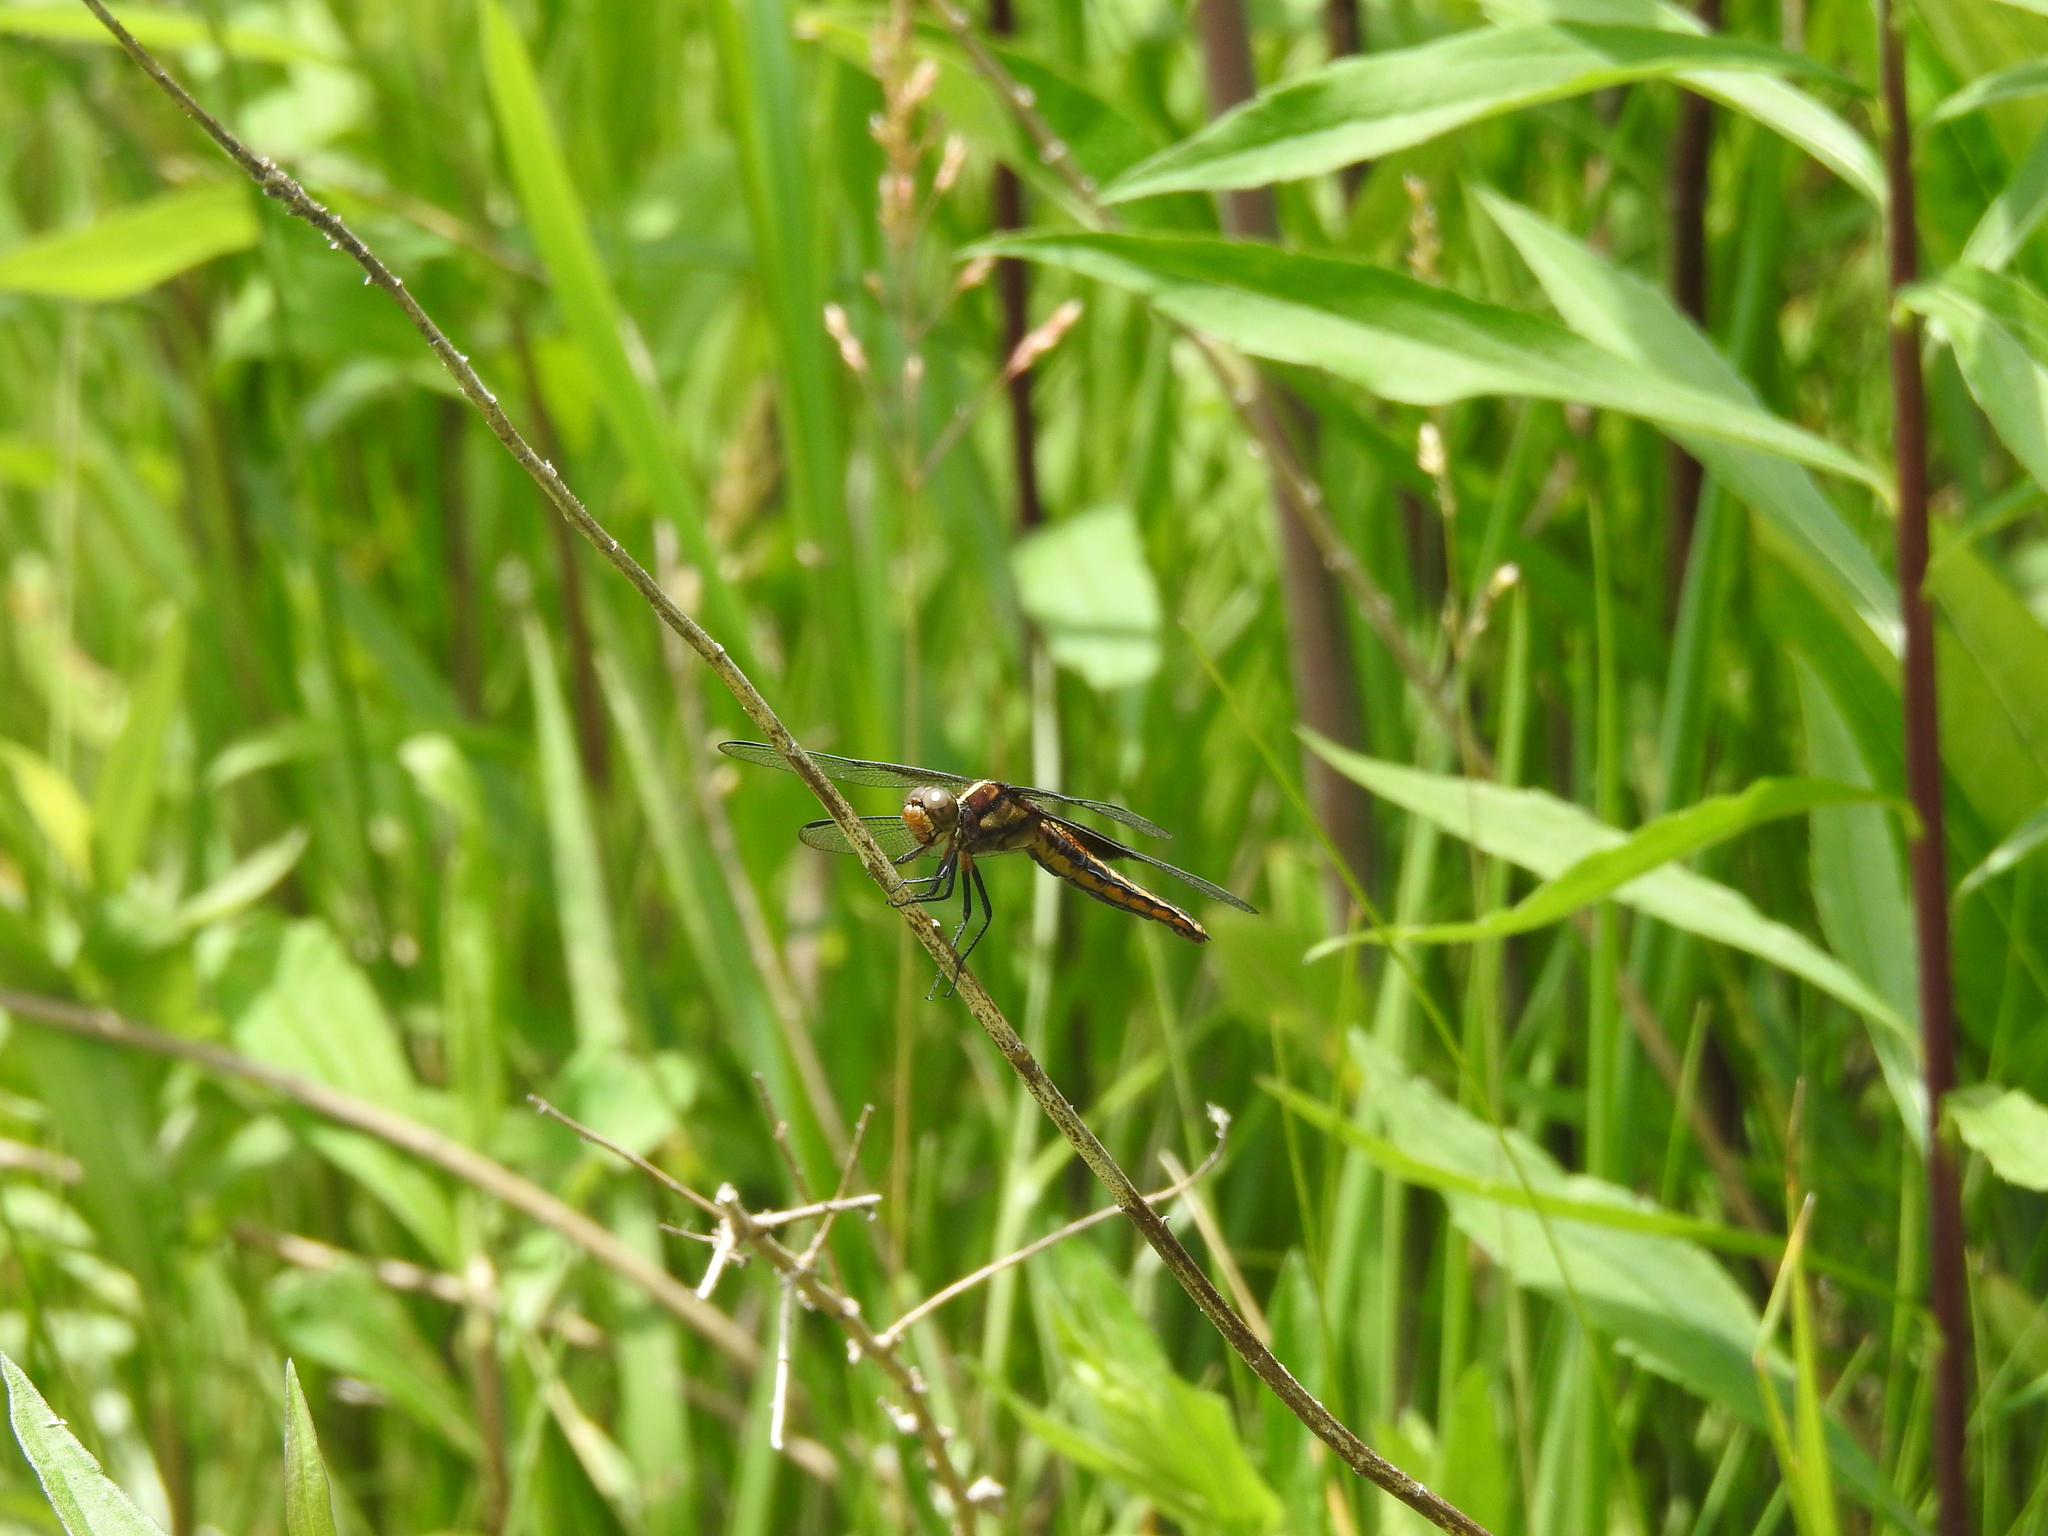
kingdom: Animalia
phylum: Arthropoda
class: Insecta
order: Odonata
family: Libellulidae
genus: Libellula
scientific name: Libellula luctuosa
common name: Widow skimmer
